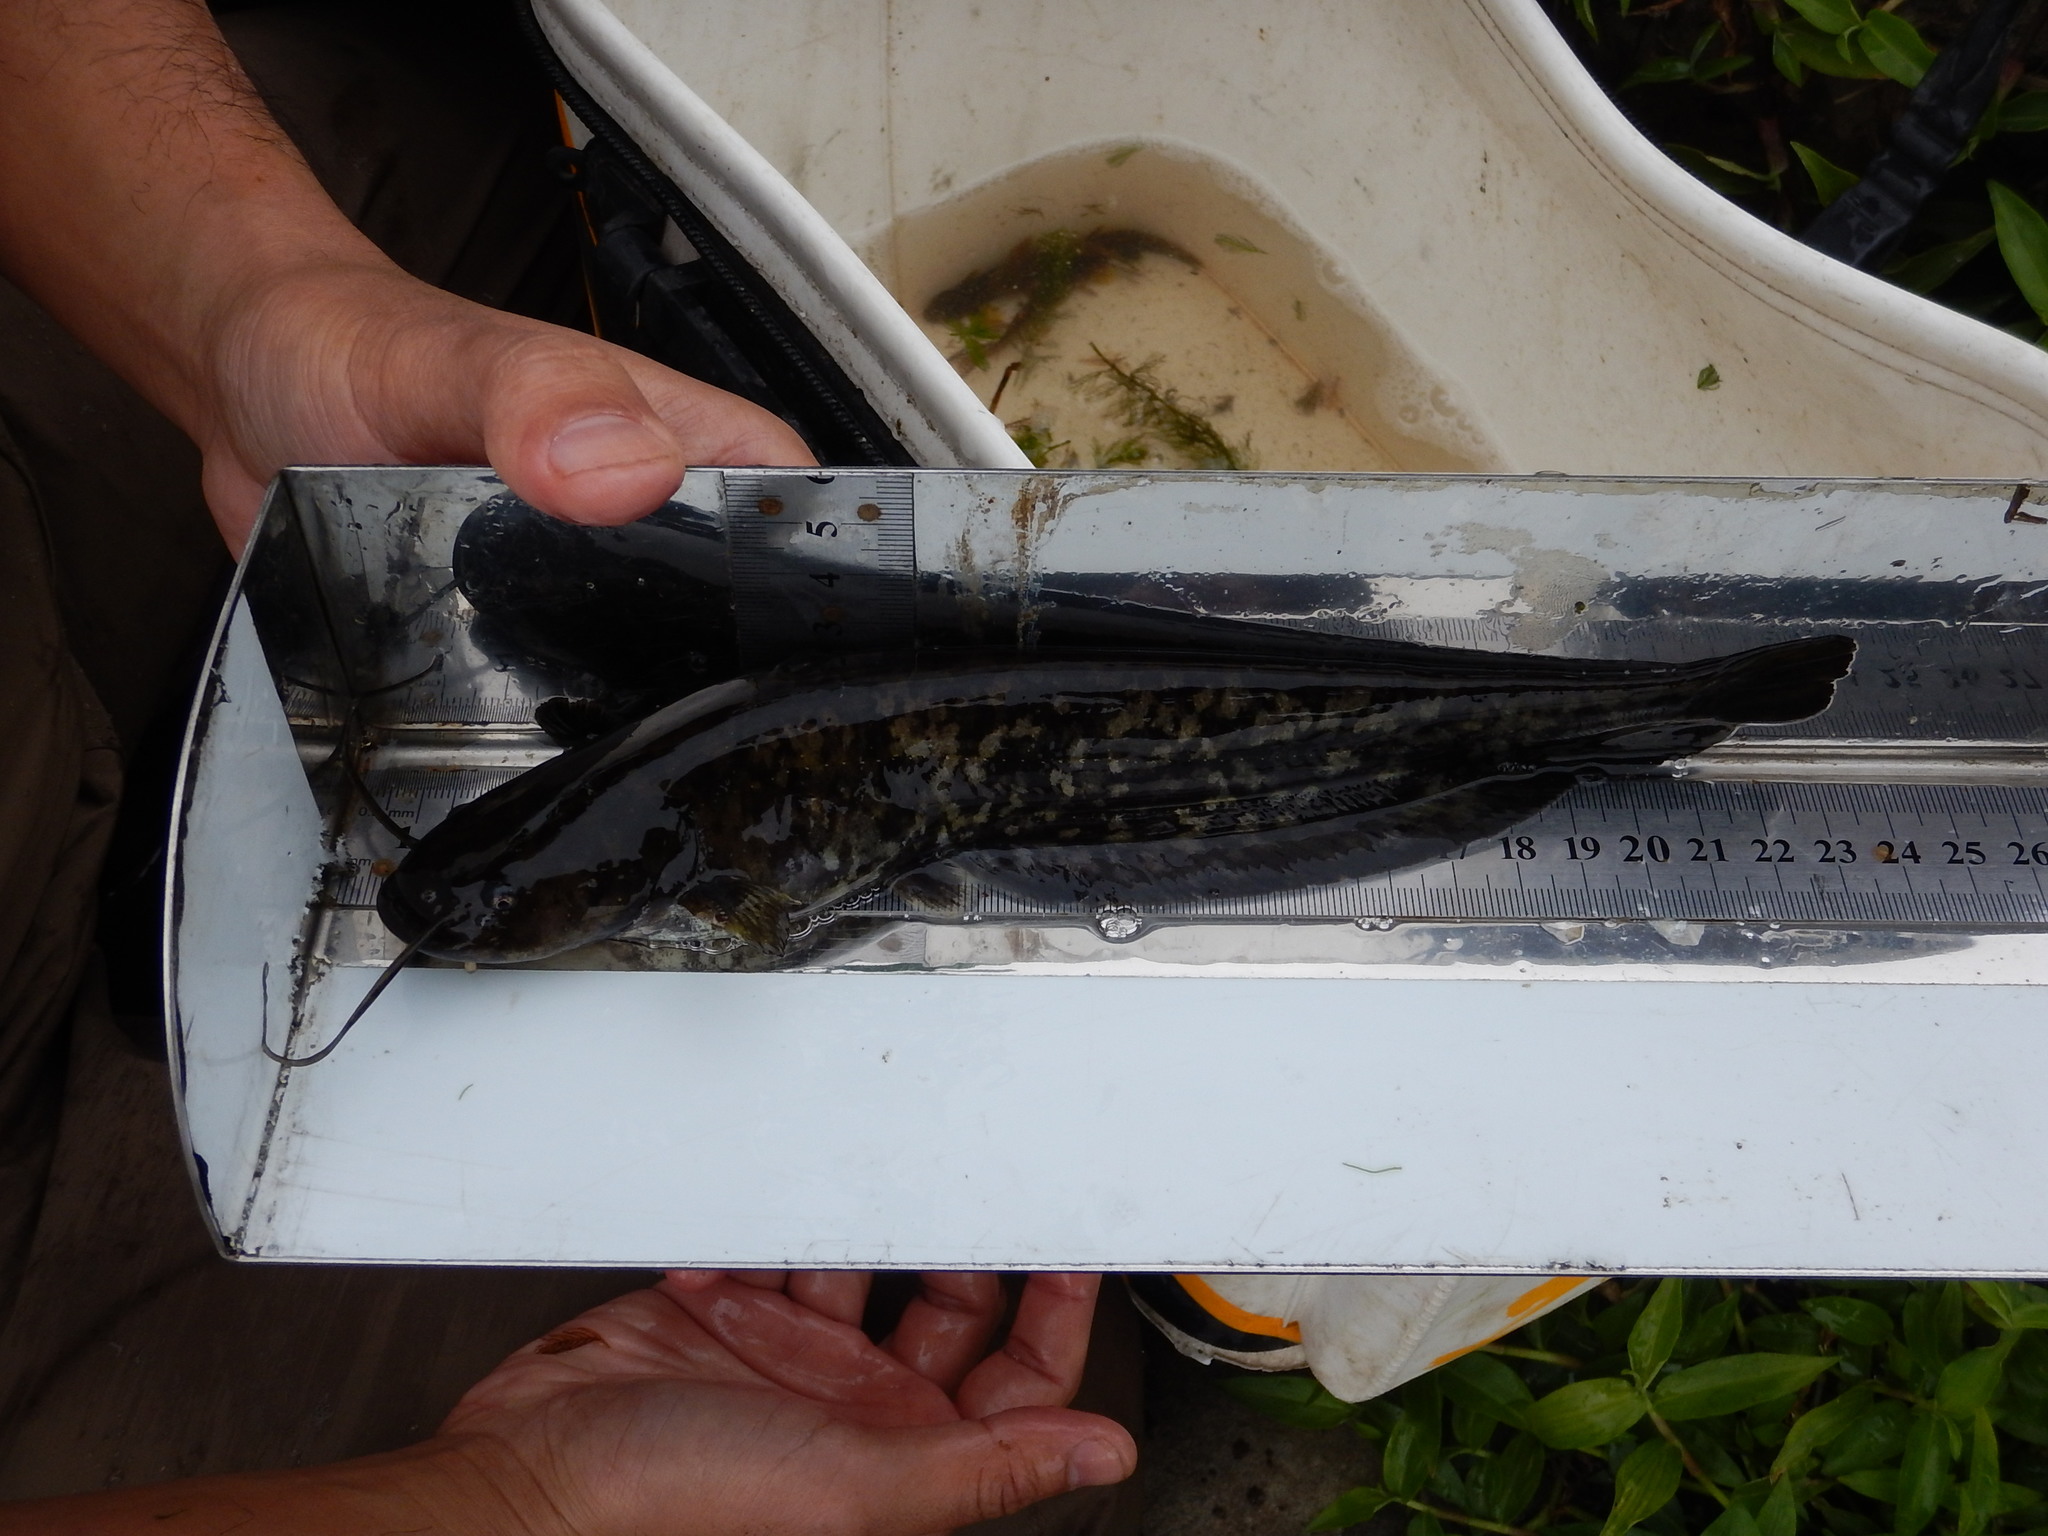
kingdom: Animalia
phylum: Chordata
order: Siluriformes
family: Siluridae
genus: Silurus
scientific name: Silurus asotus
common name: Amur catfish
